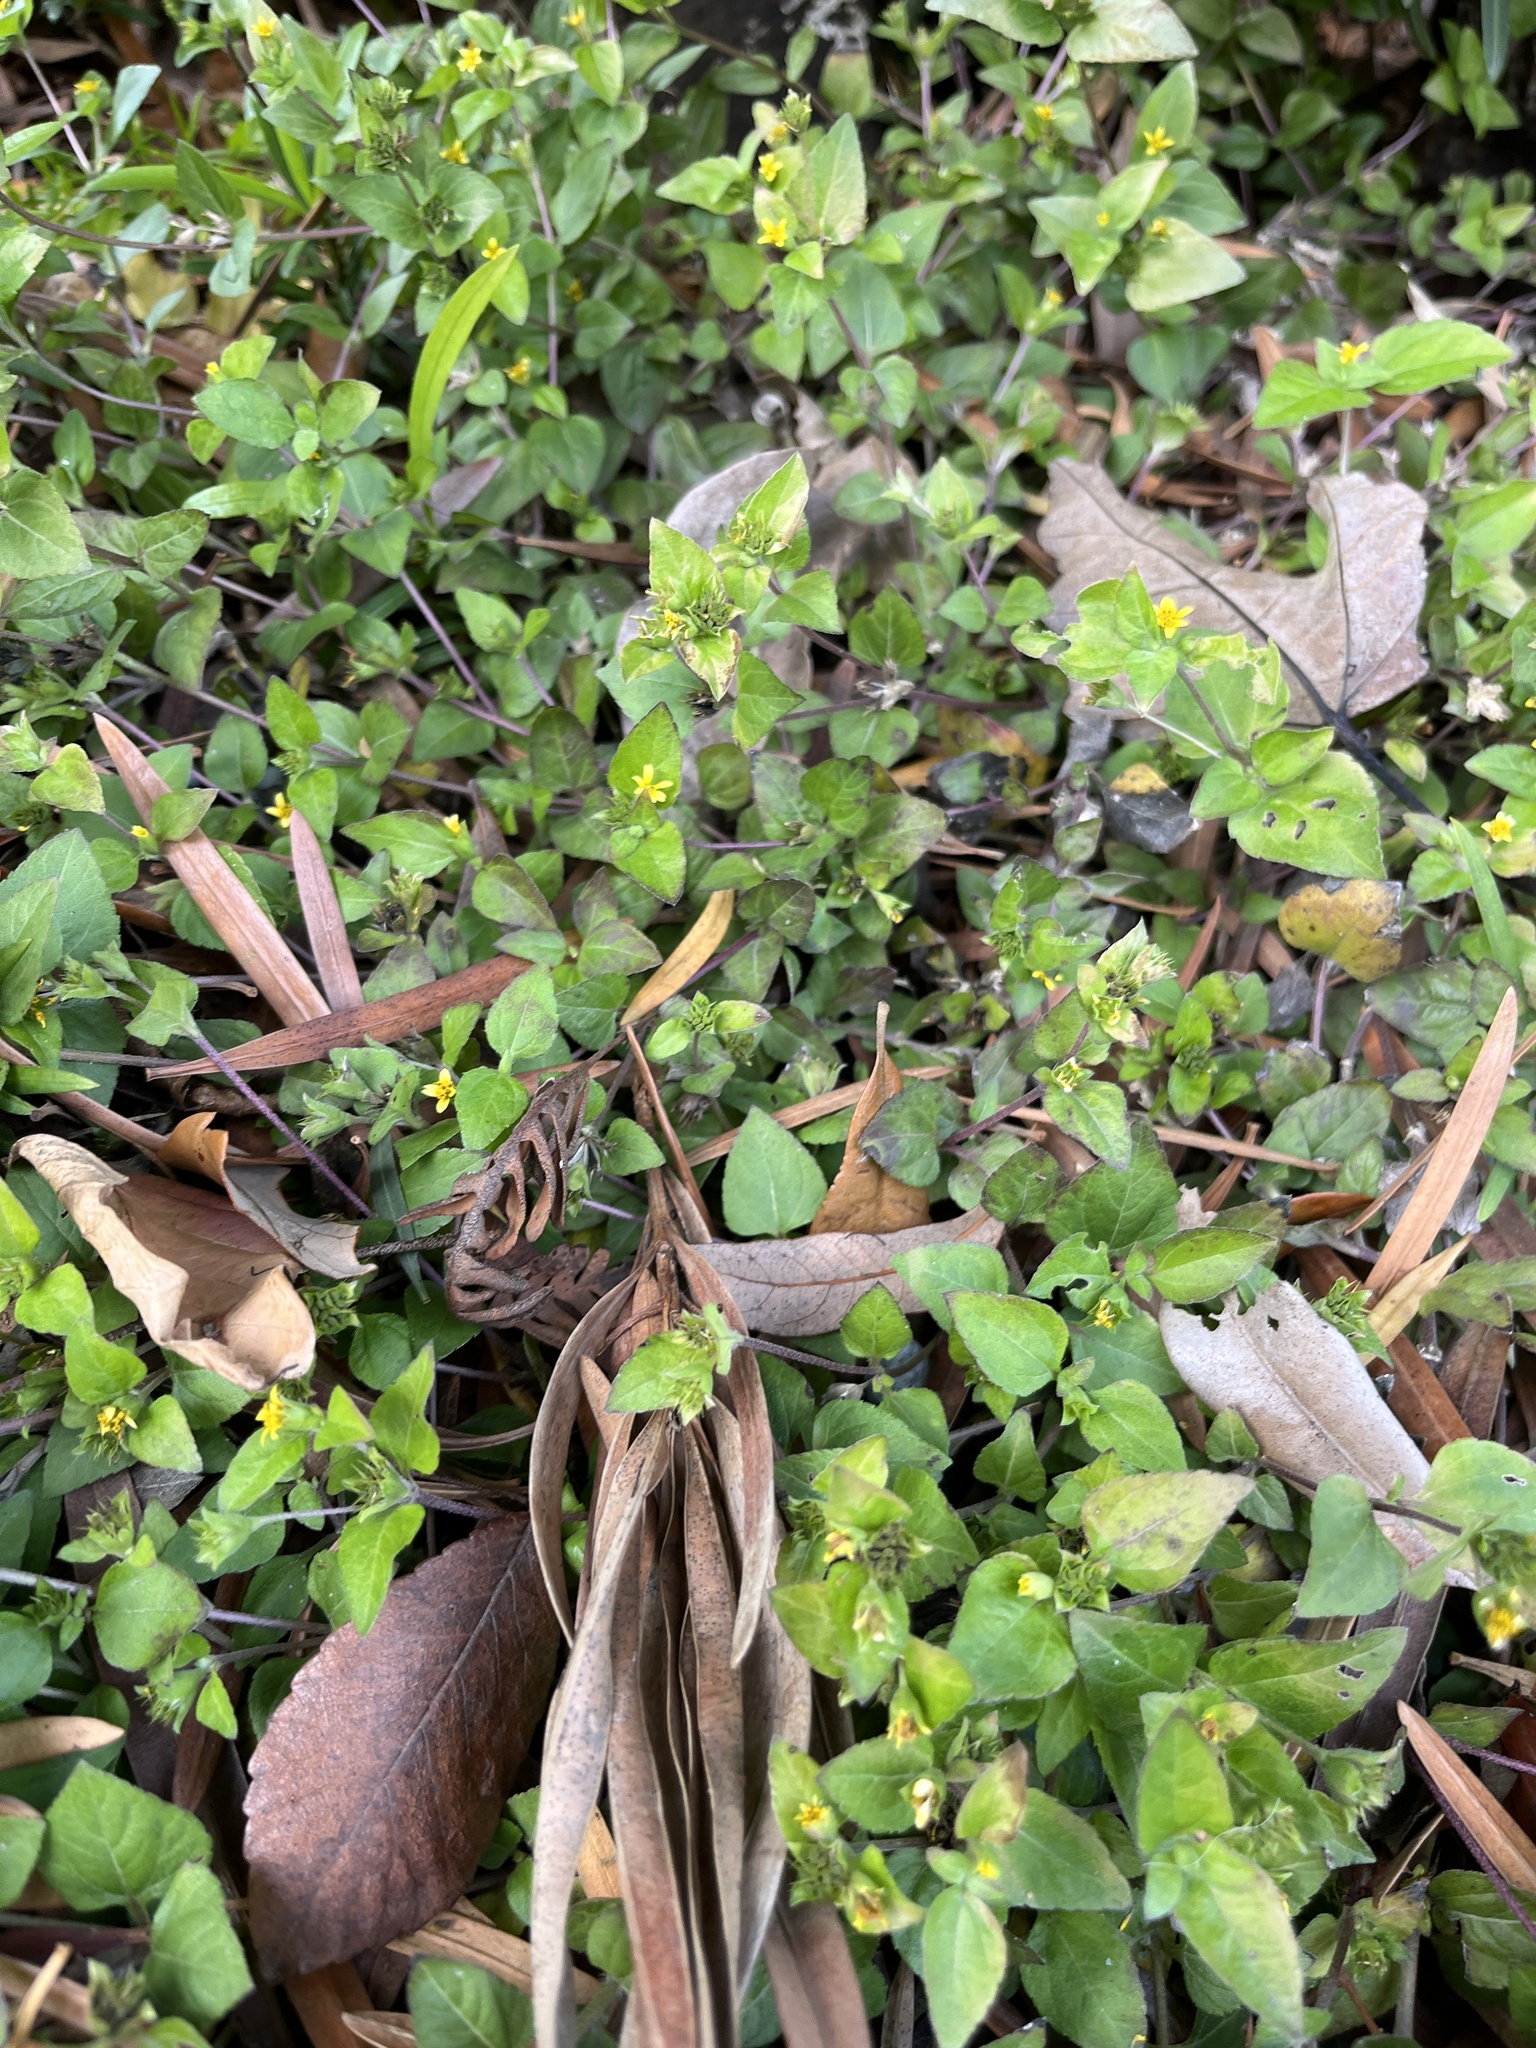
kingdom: Plantae
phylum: Tracheophyta
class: Magnoliopsida
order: Asterales
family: Asteraceae
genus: Calyptocarpus
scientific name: Calyptocarpus vialis
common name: Straggler daisy
